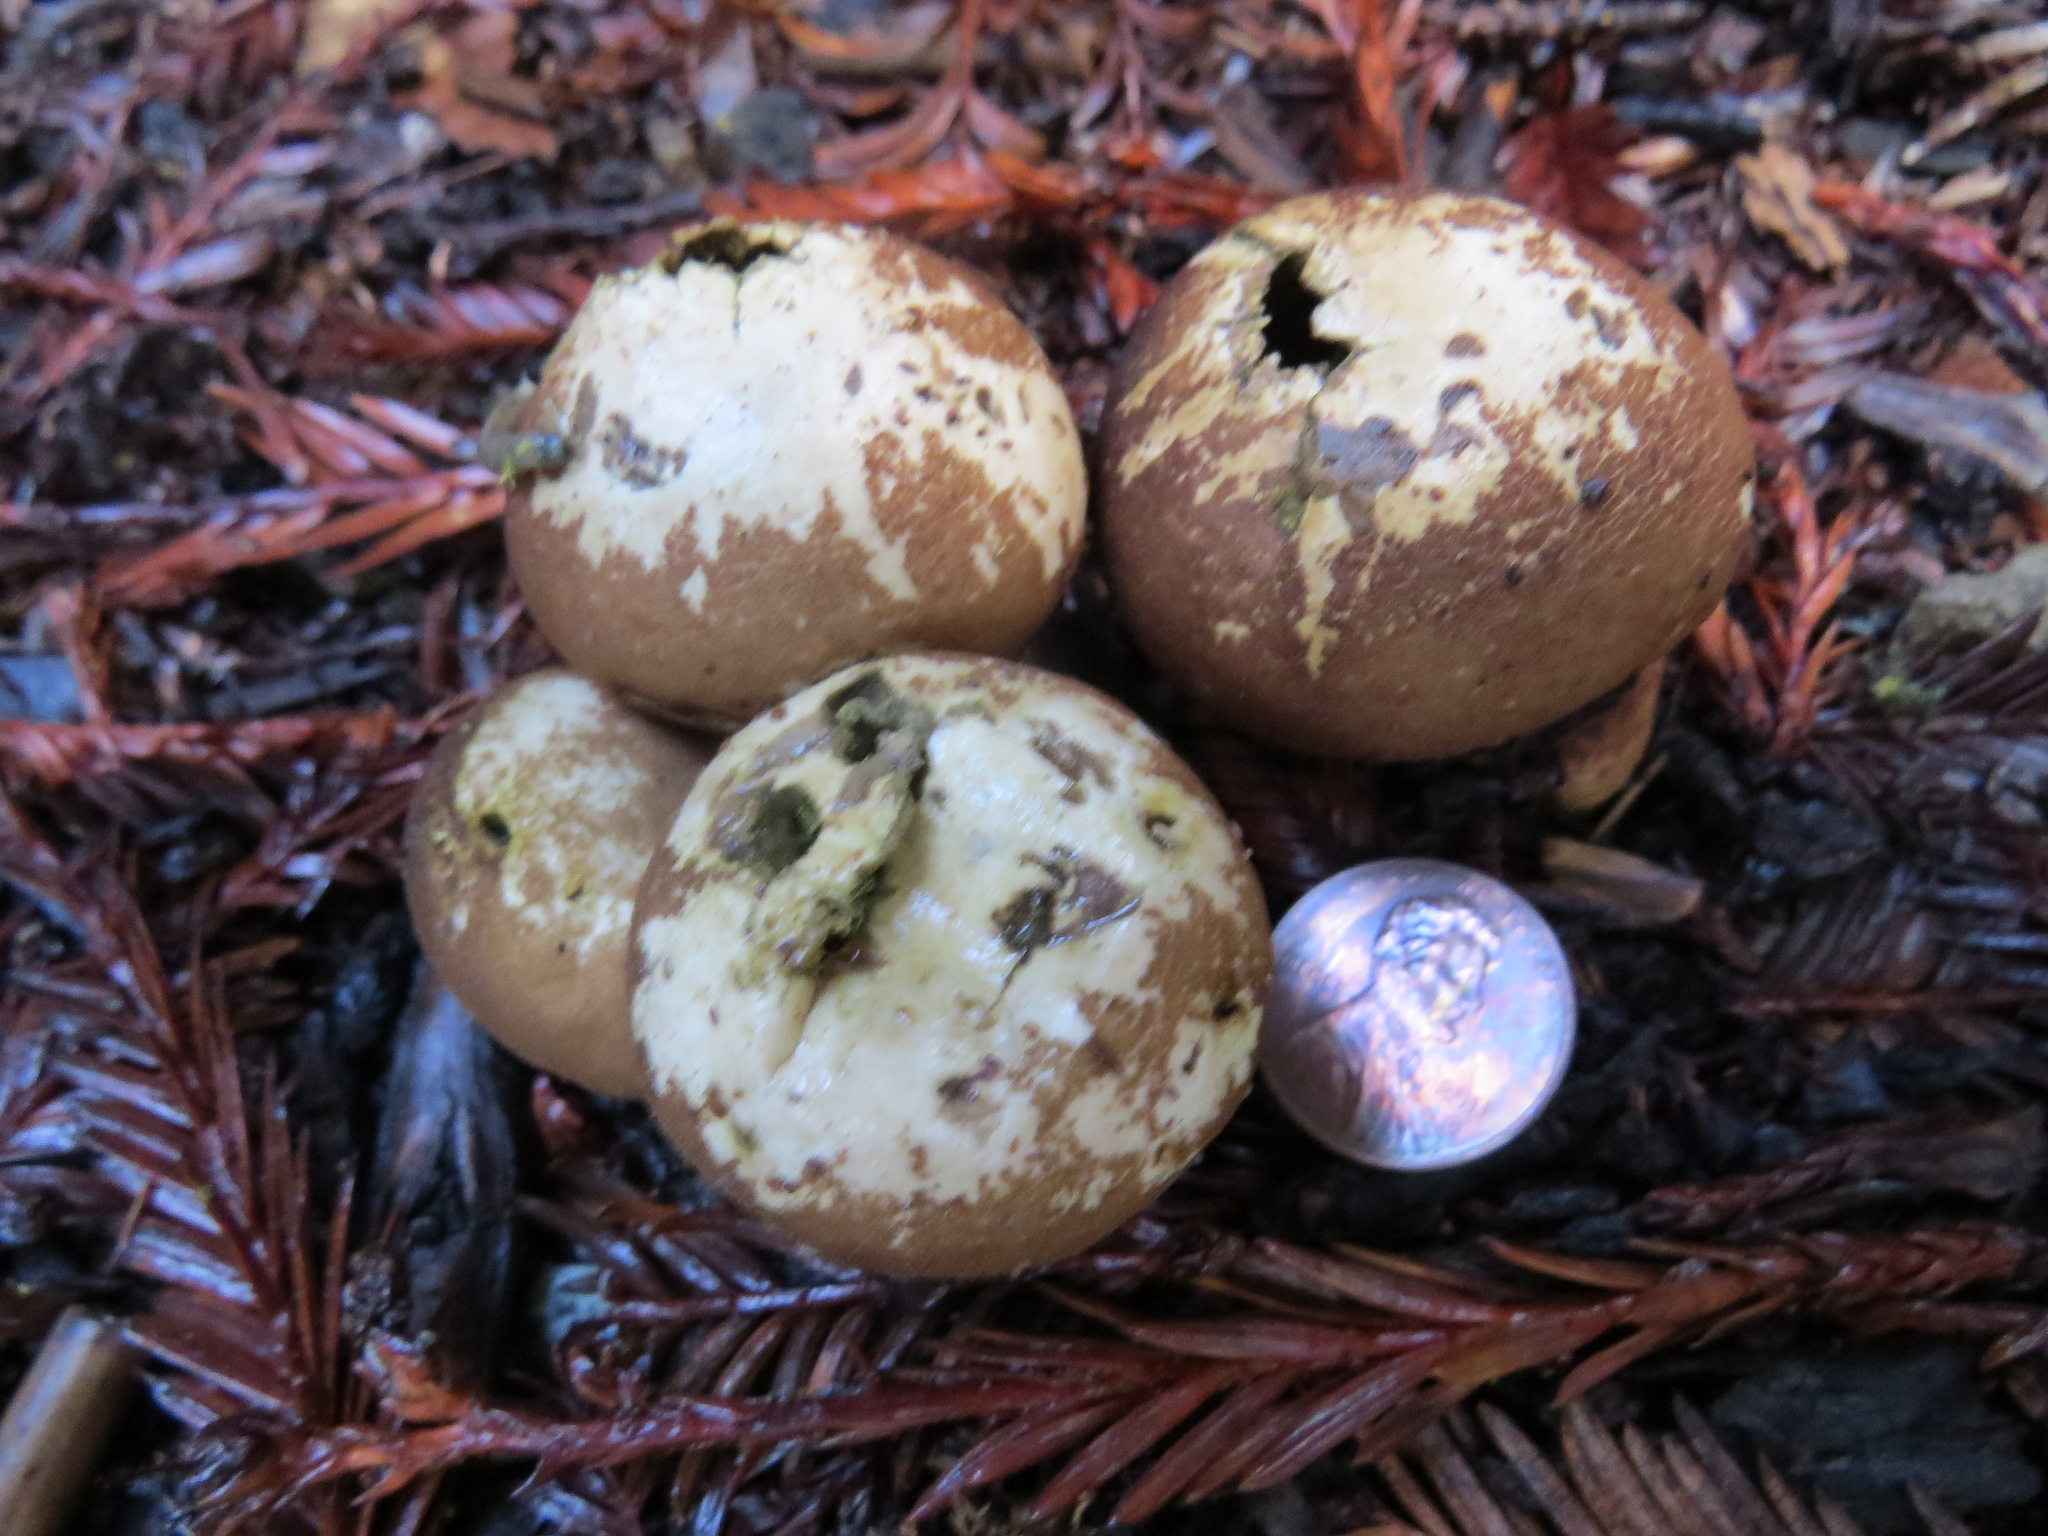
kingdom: Fungi
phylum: Basidiomycota
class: Agaricomycetes
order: Agaricales
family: Lycoperdaceae
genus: Lycoperdon
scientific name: Lycoperdon umbrinum
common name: Umber-brown puffball
